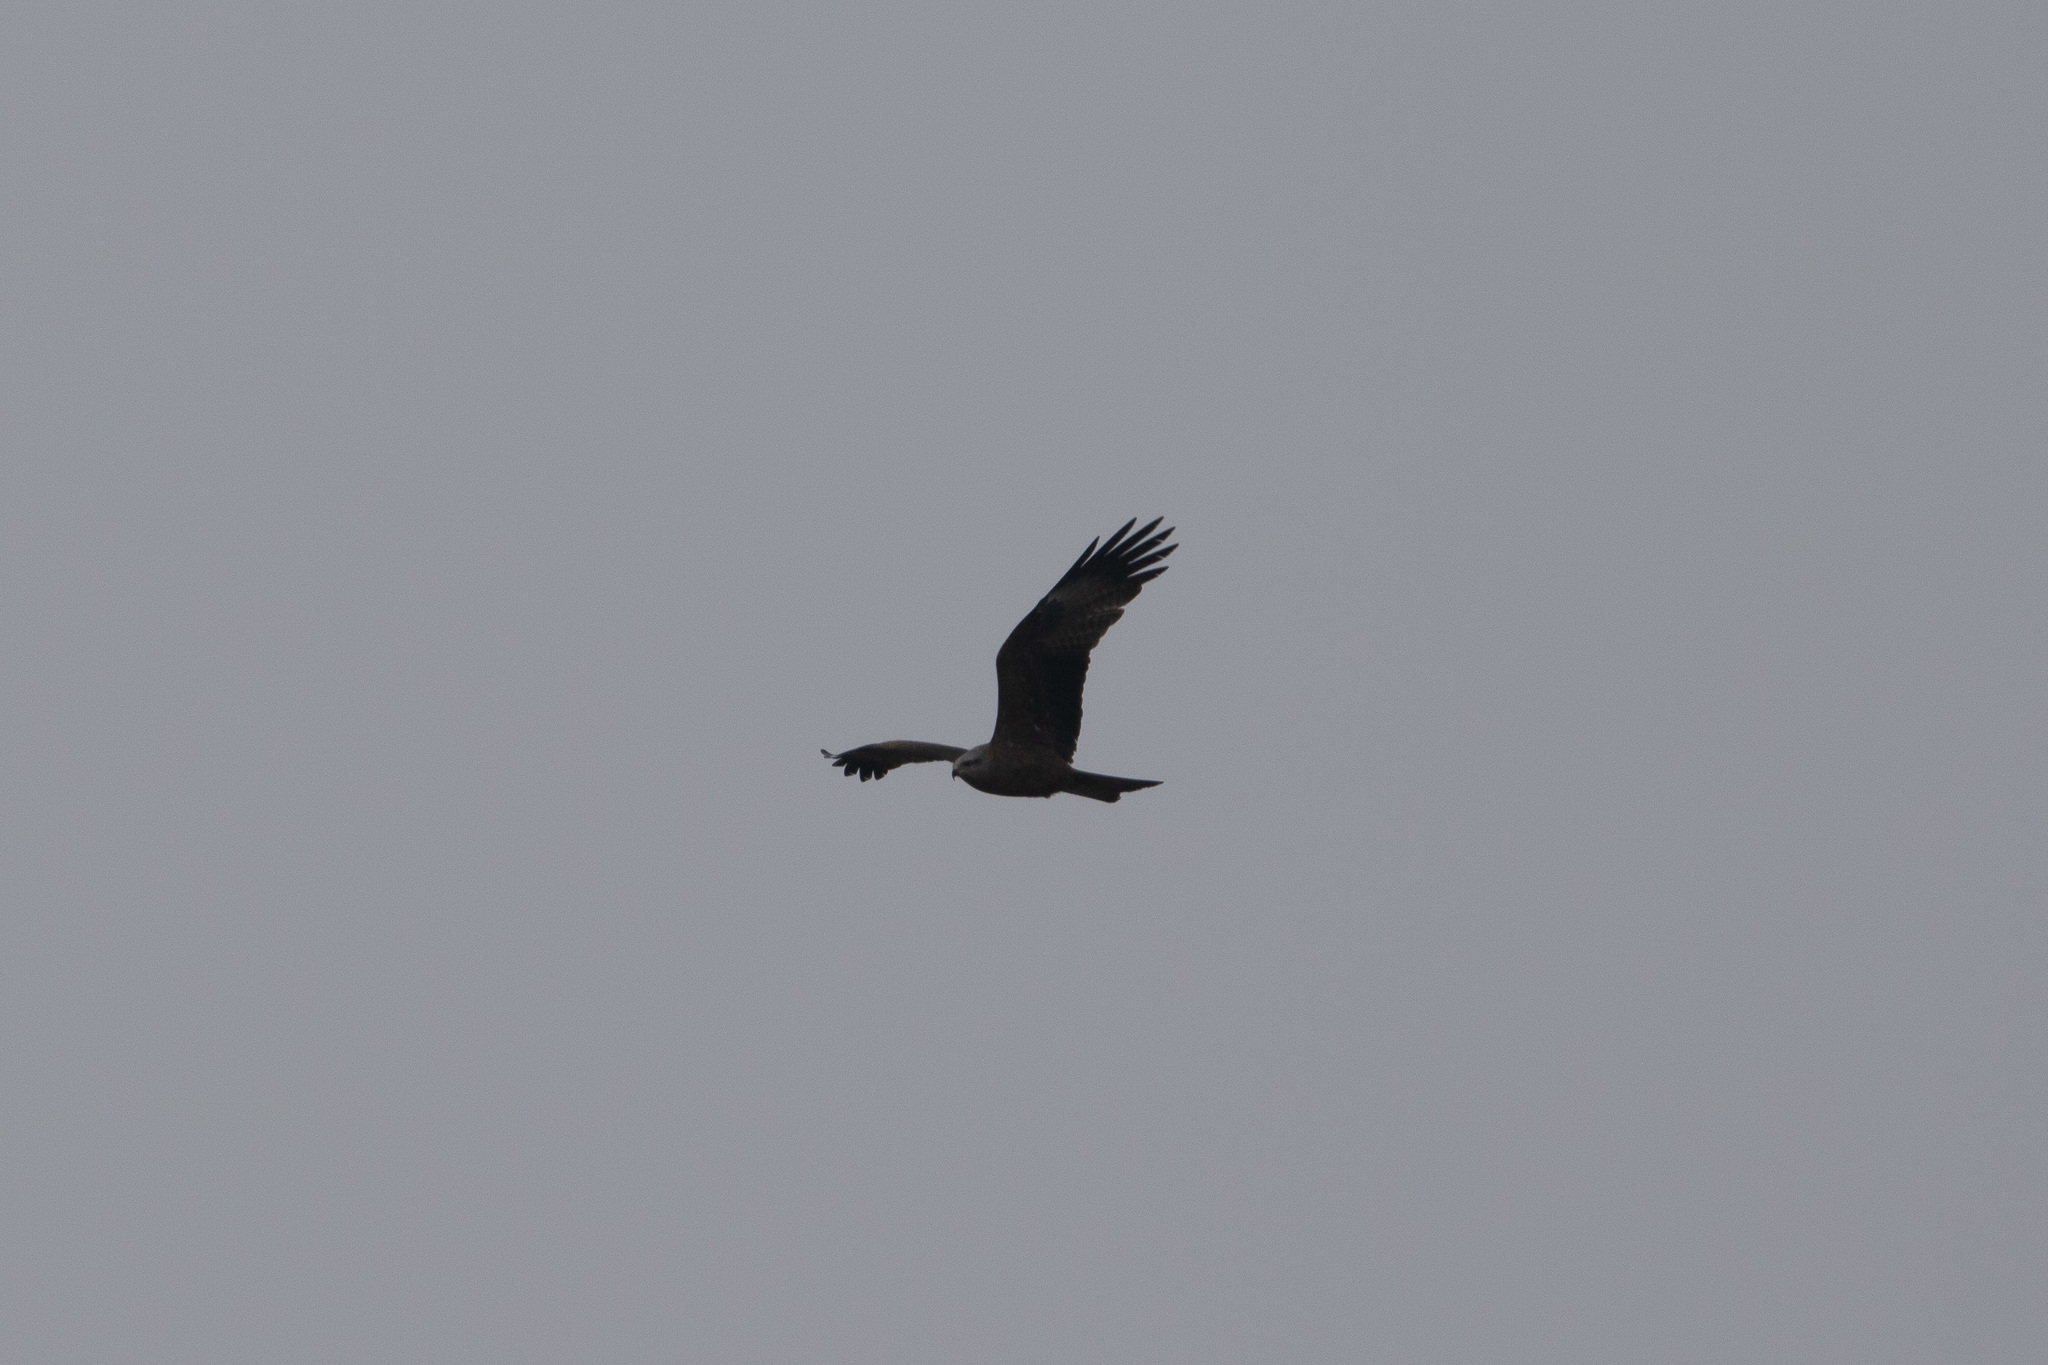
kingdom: Animalia
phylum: Chordata
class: Aves
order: Accipitriformes
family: Accipitridae
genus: Milvus
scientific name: Milvus migrans
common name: Black kite
